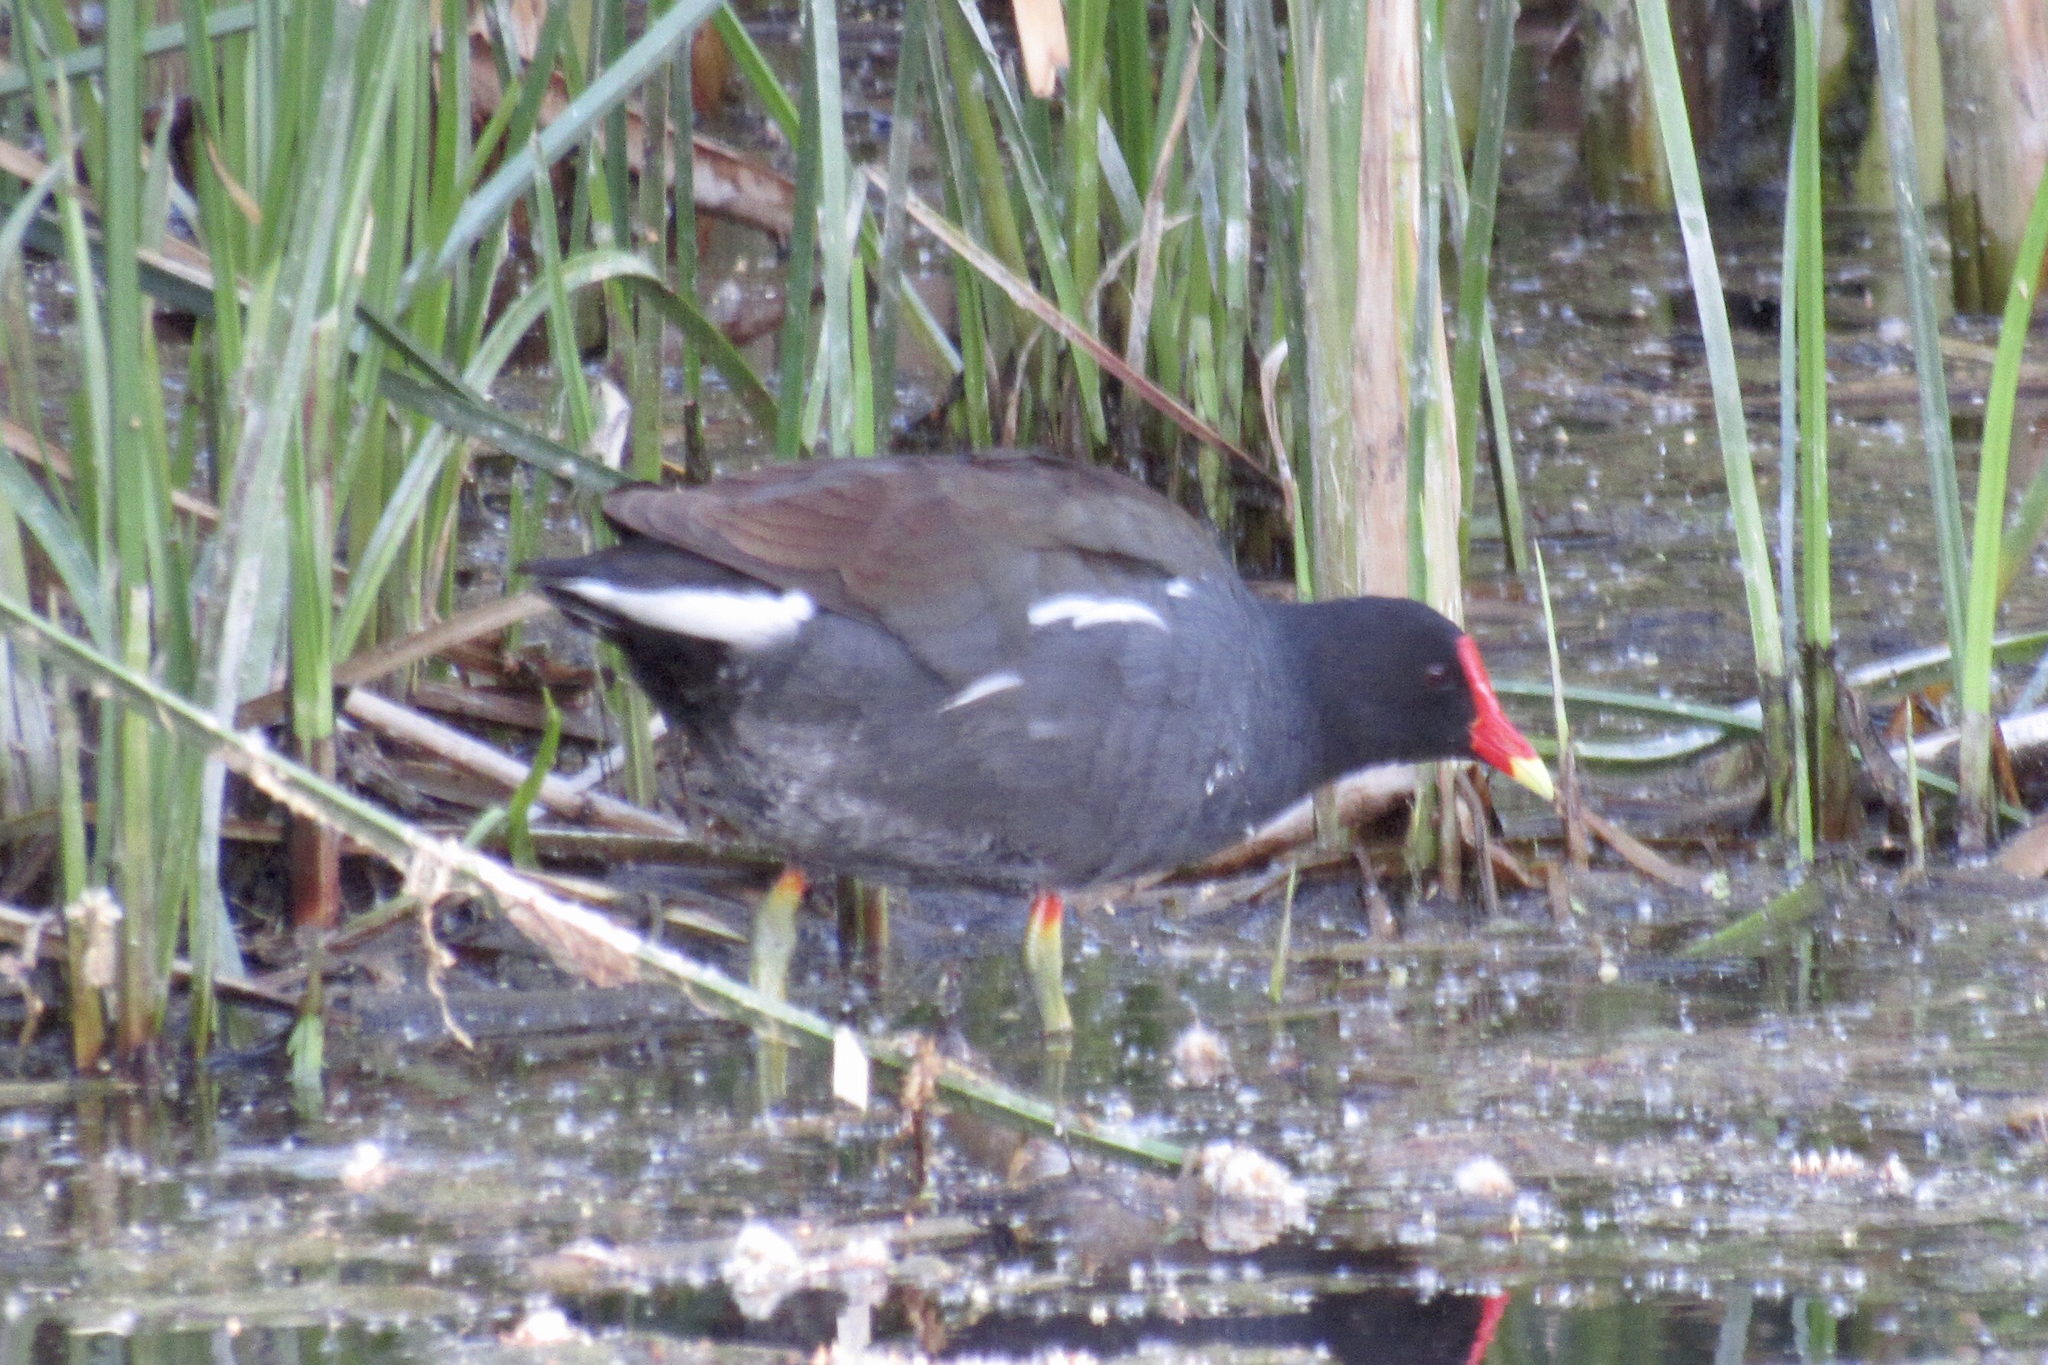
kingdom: Animalia
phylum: Chordata
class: Aves
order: Gruiformes
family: Rallidae
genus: Gallinula
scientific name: Gallinula chloropus
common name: Common moorhen
